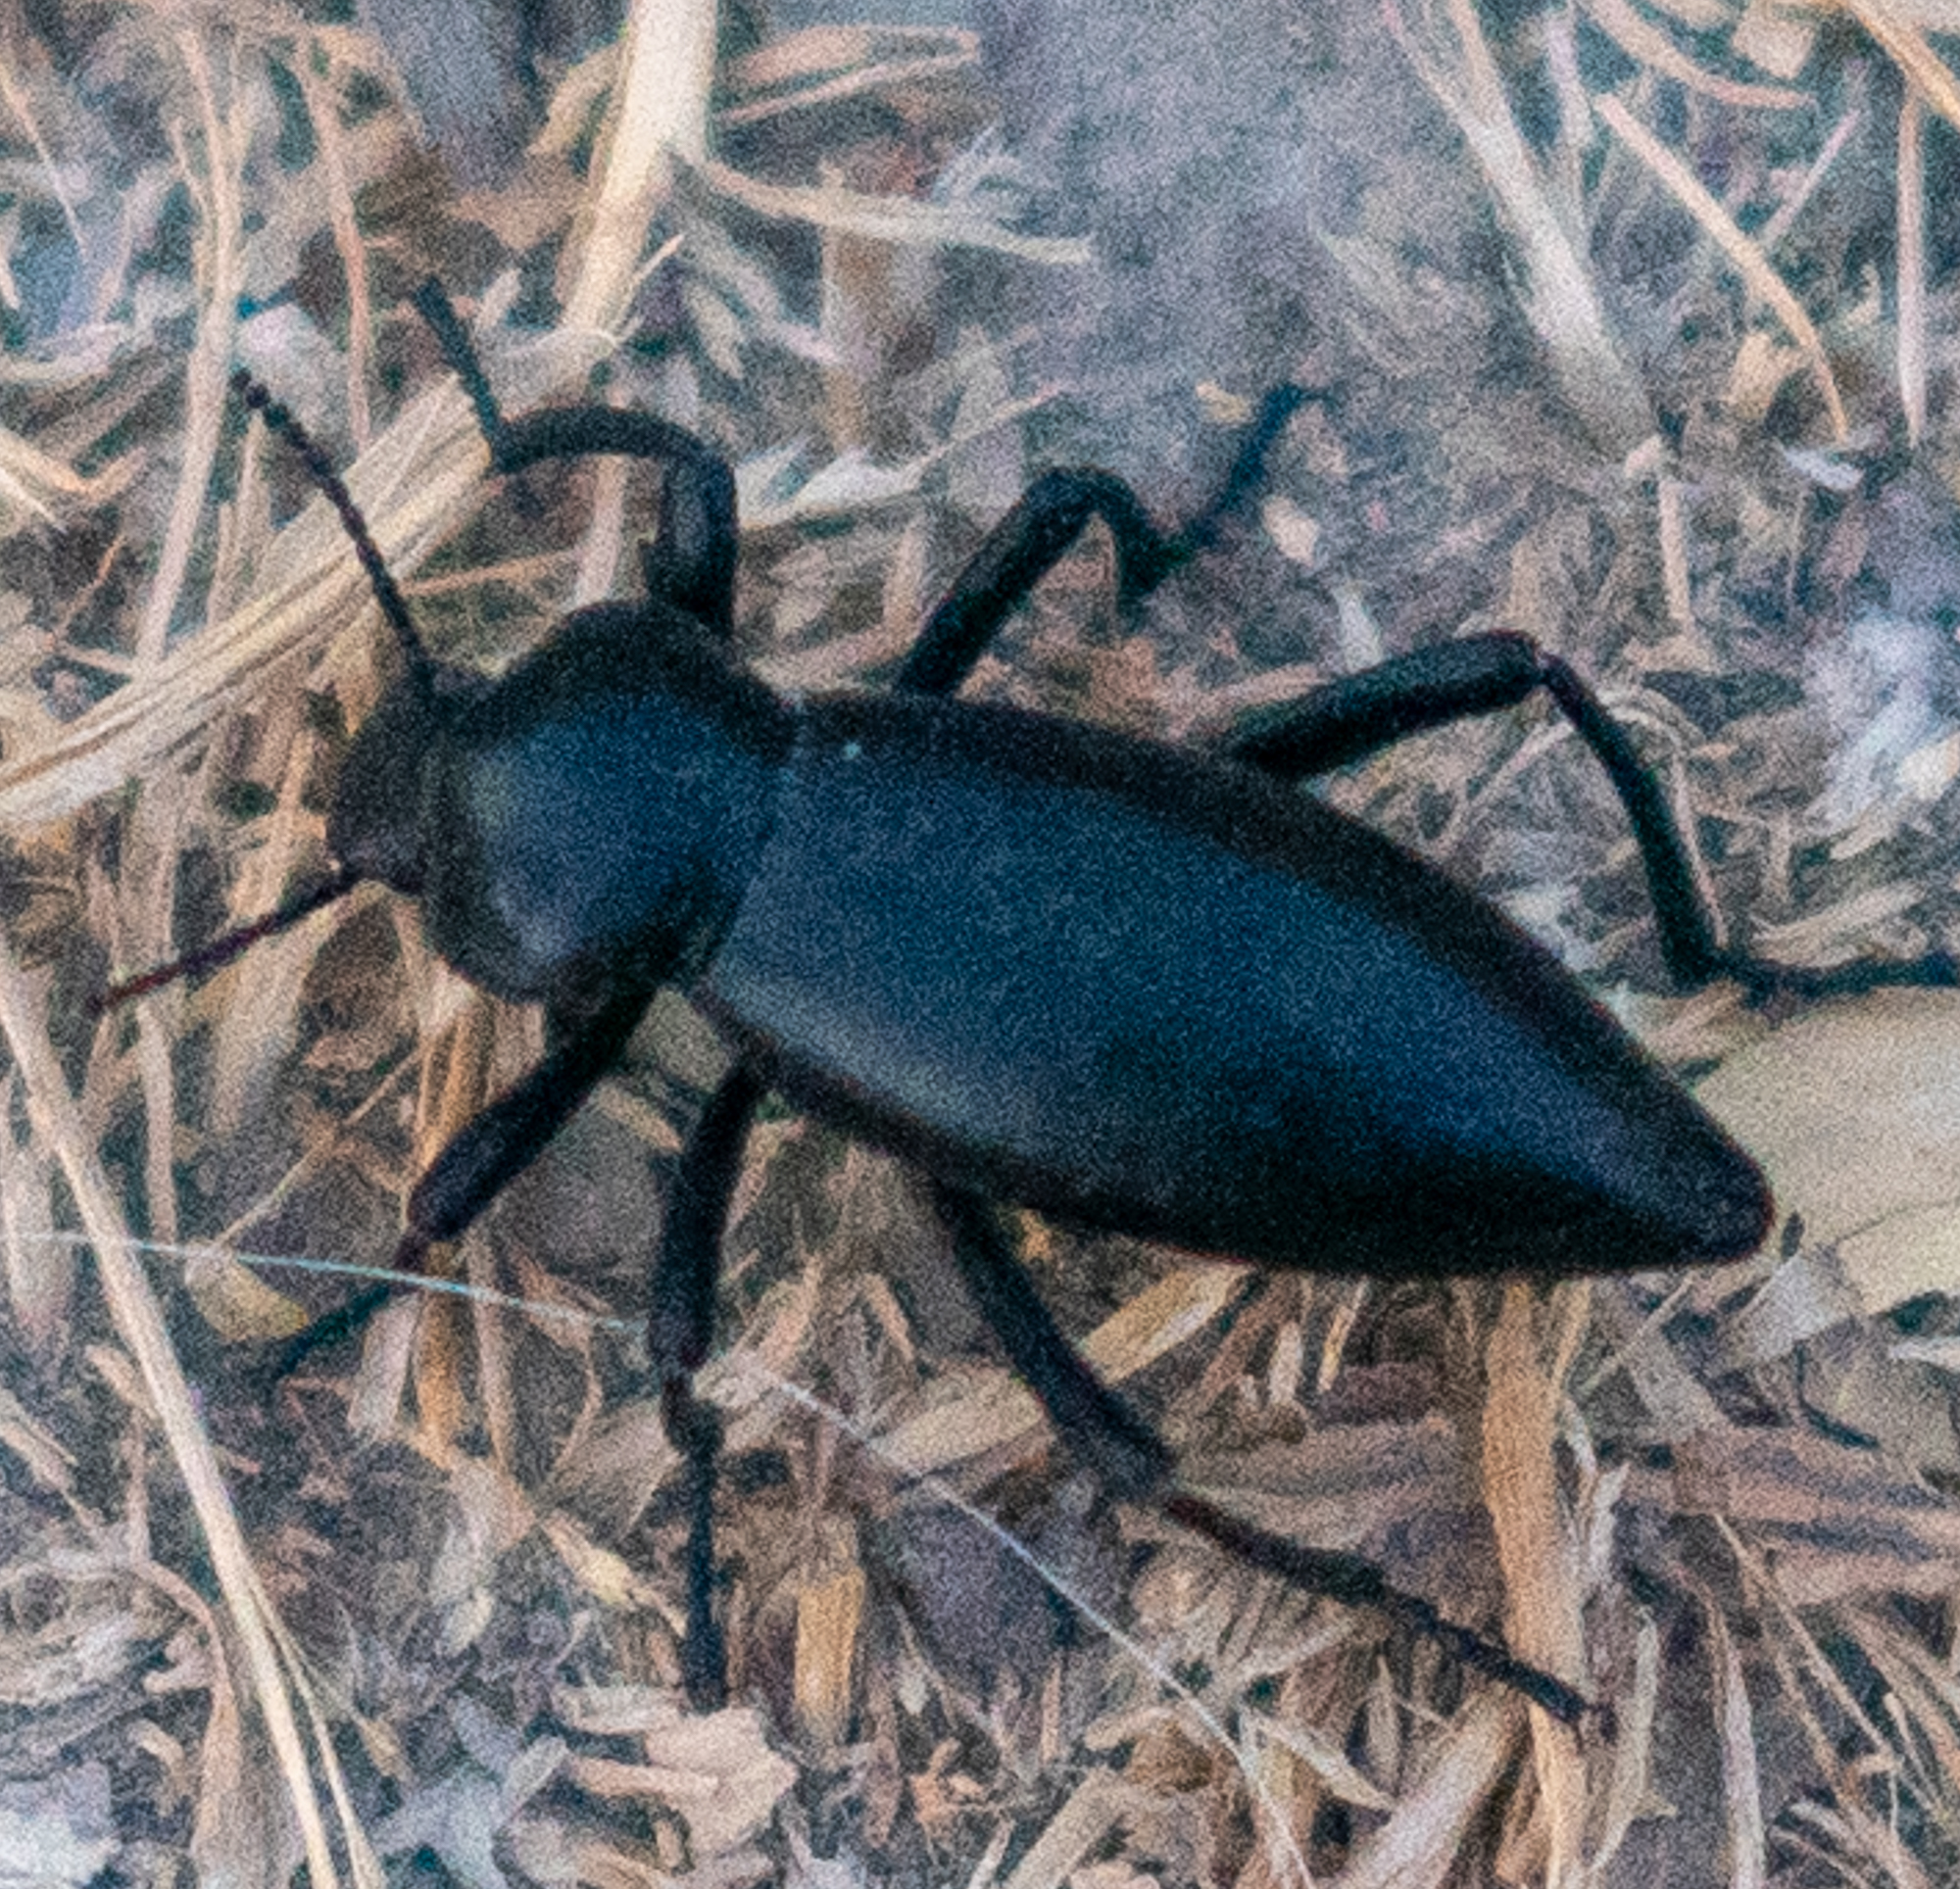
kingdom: Animalia
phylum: Arthropoda
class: Insecta
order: Coleoptera
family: Tenebrionidae
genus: Eleodes
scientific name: Eleodes acuticauda
